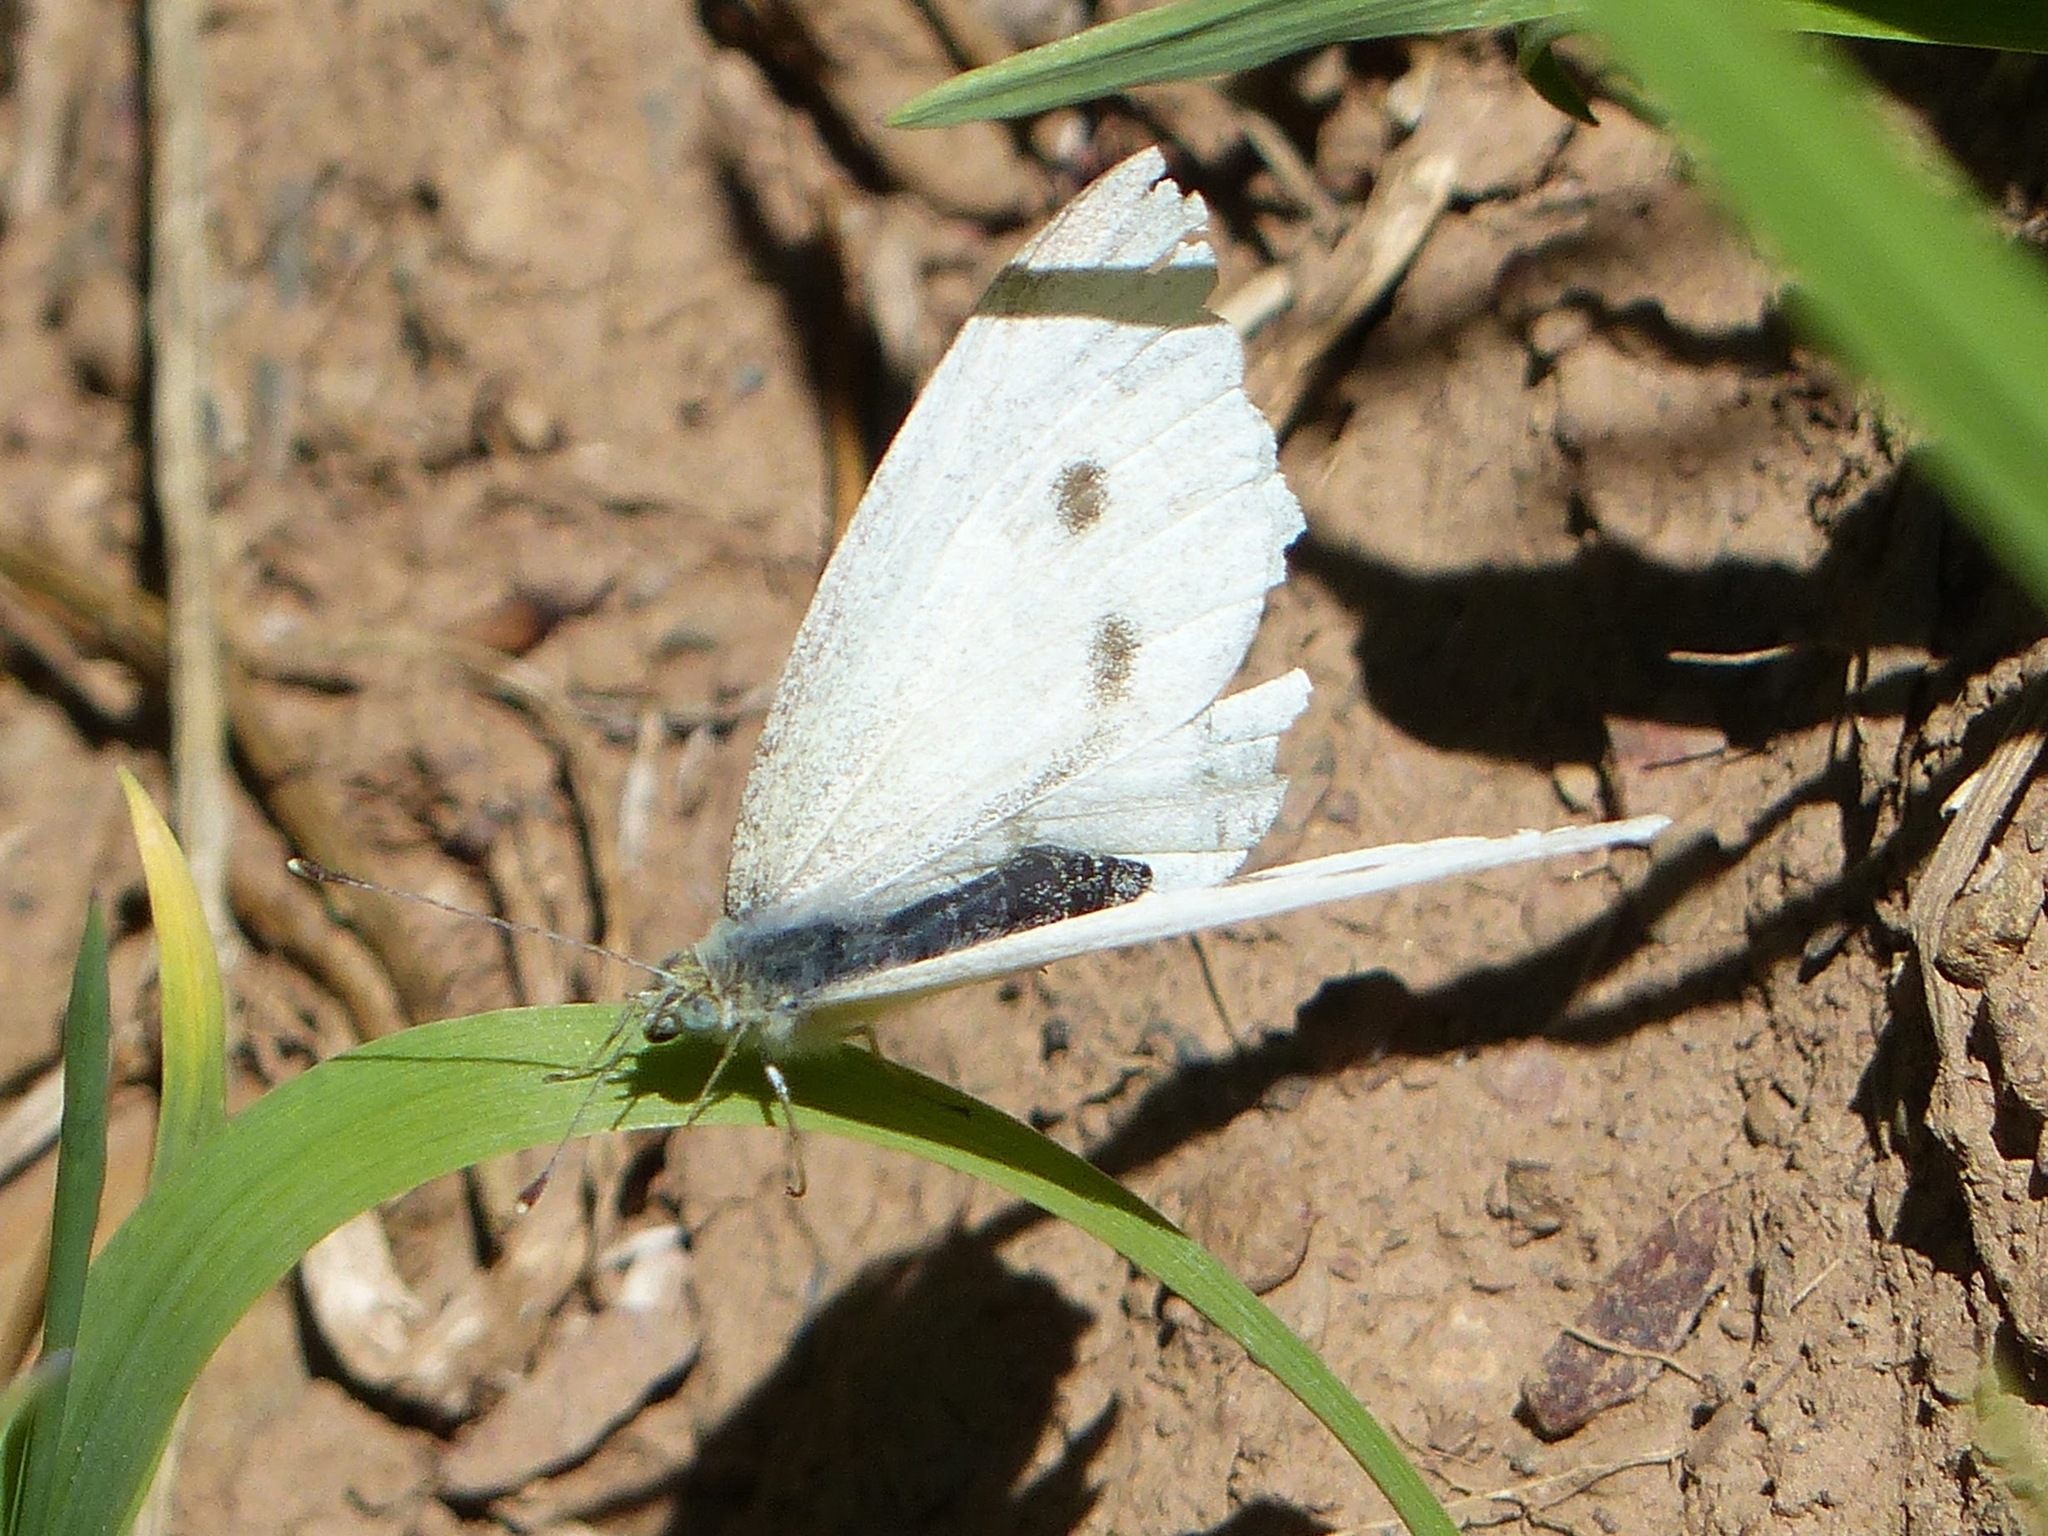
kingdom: Animalia
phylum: Arthropoda
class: Insecta
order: Lepidoptera
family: Pieridae
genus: Pieris
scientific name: Pieris rapae
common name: Small white
